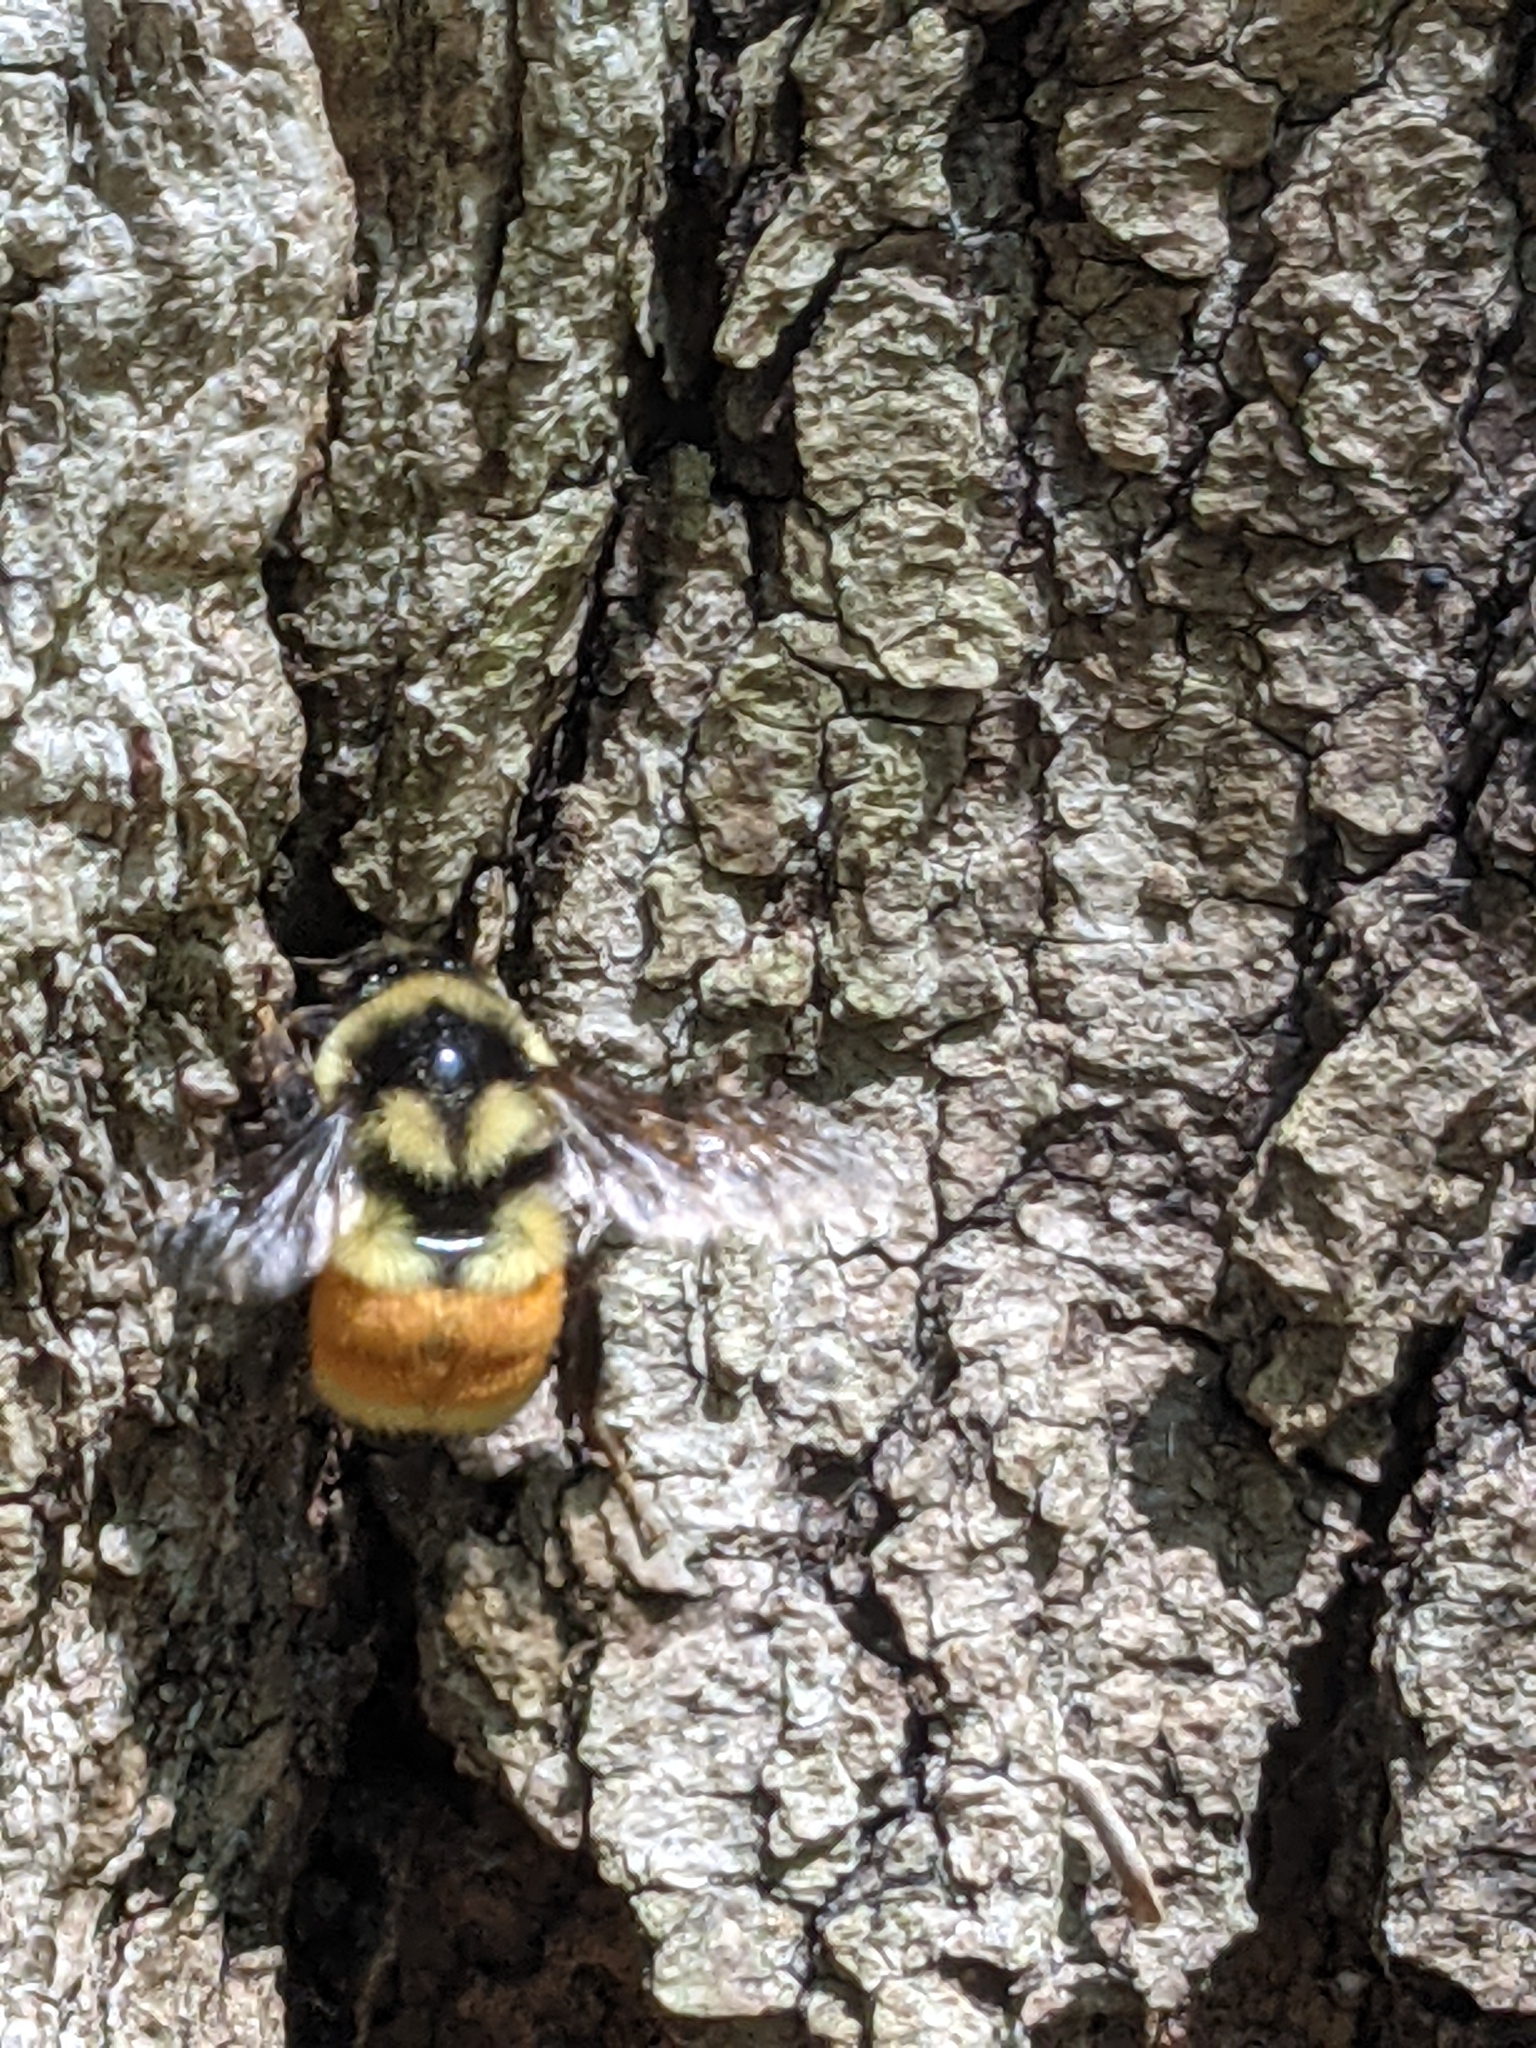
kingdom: Animalia
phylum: Arthropoda
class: Insecta
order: Hymenoptera
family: Apidae
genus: Bombus
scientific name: Bombus ternarius
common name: Tri-colored bumble bee
